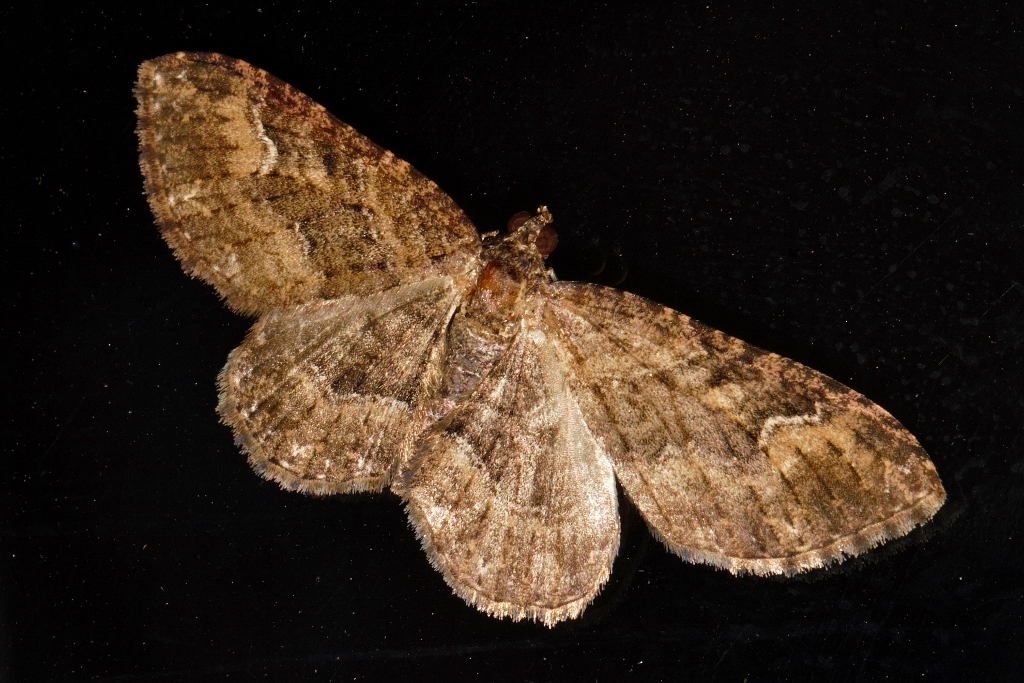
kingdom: Animalia
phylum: Arthropoda
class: Insecta
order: Lepidoptera
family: Geometridae
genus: Disclisioprocta
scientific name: Disclisioprocta natalata
